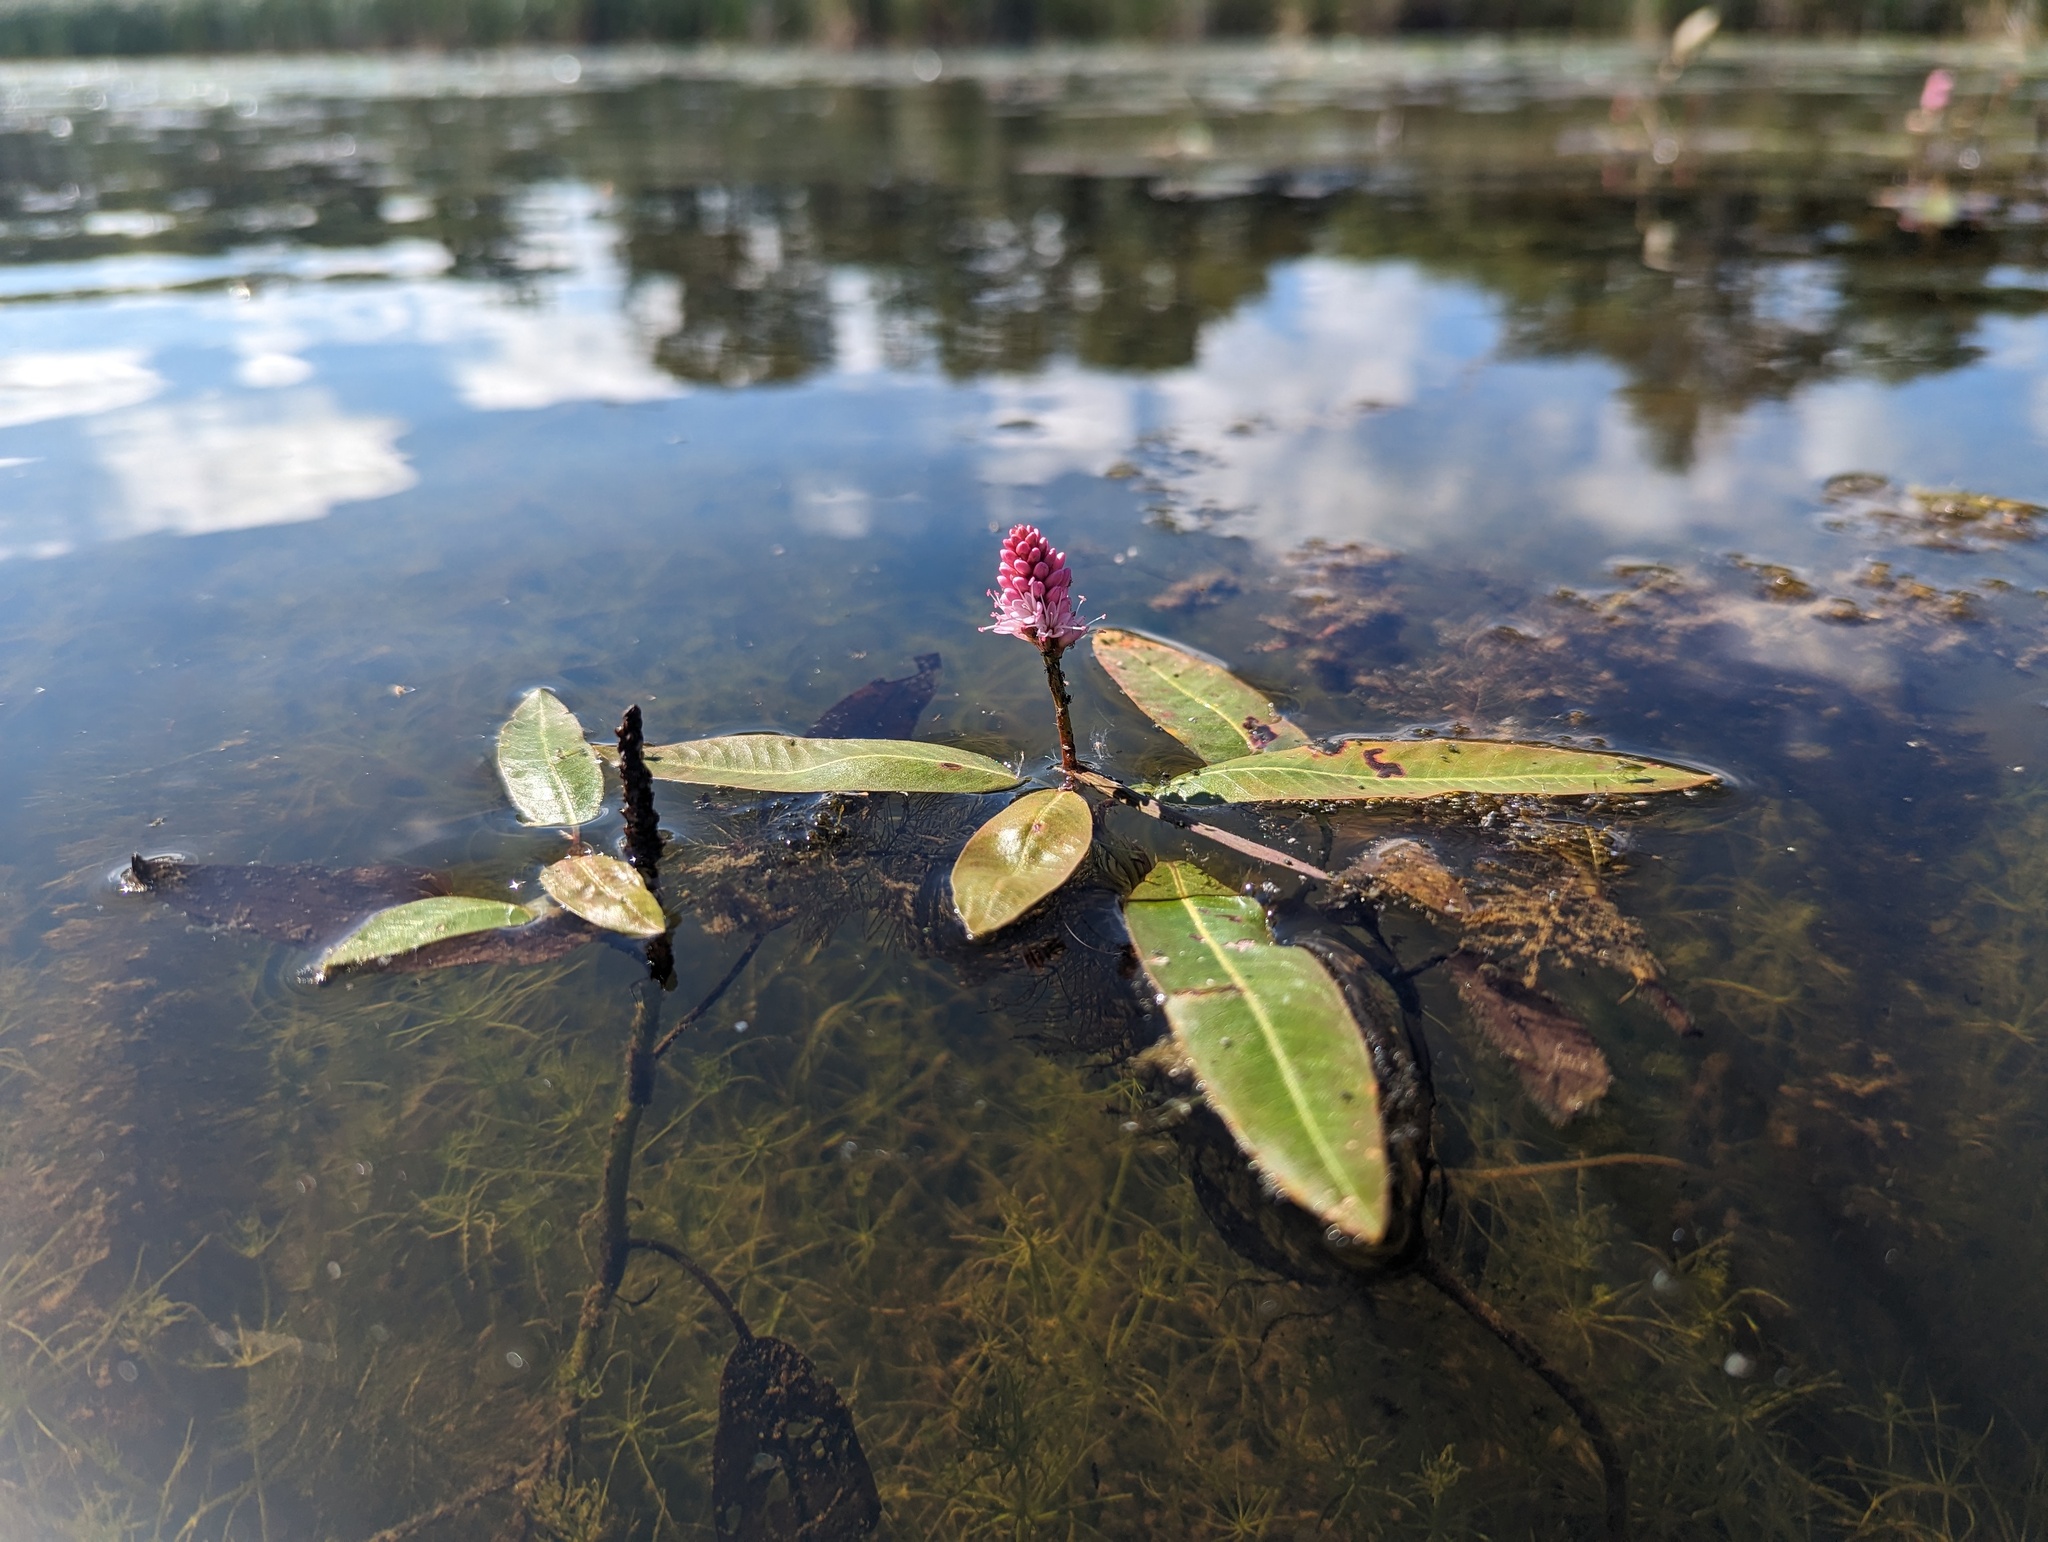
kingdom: Plantae
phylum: Tracheophyta
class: Magnoliopsida
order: Caryophyllales
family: Polygonaceae
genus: Persicaria
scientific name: Persicaria amphibia
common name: Amphibious bistort
